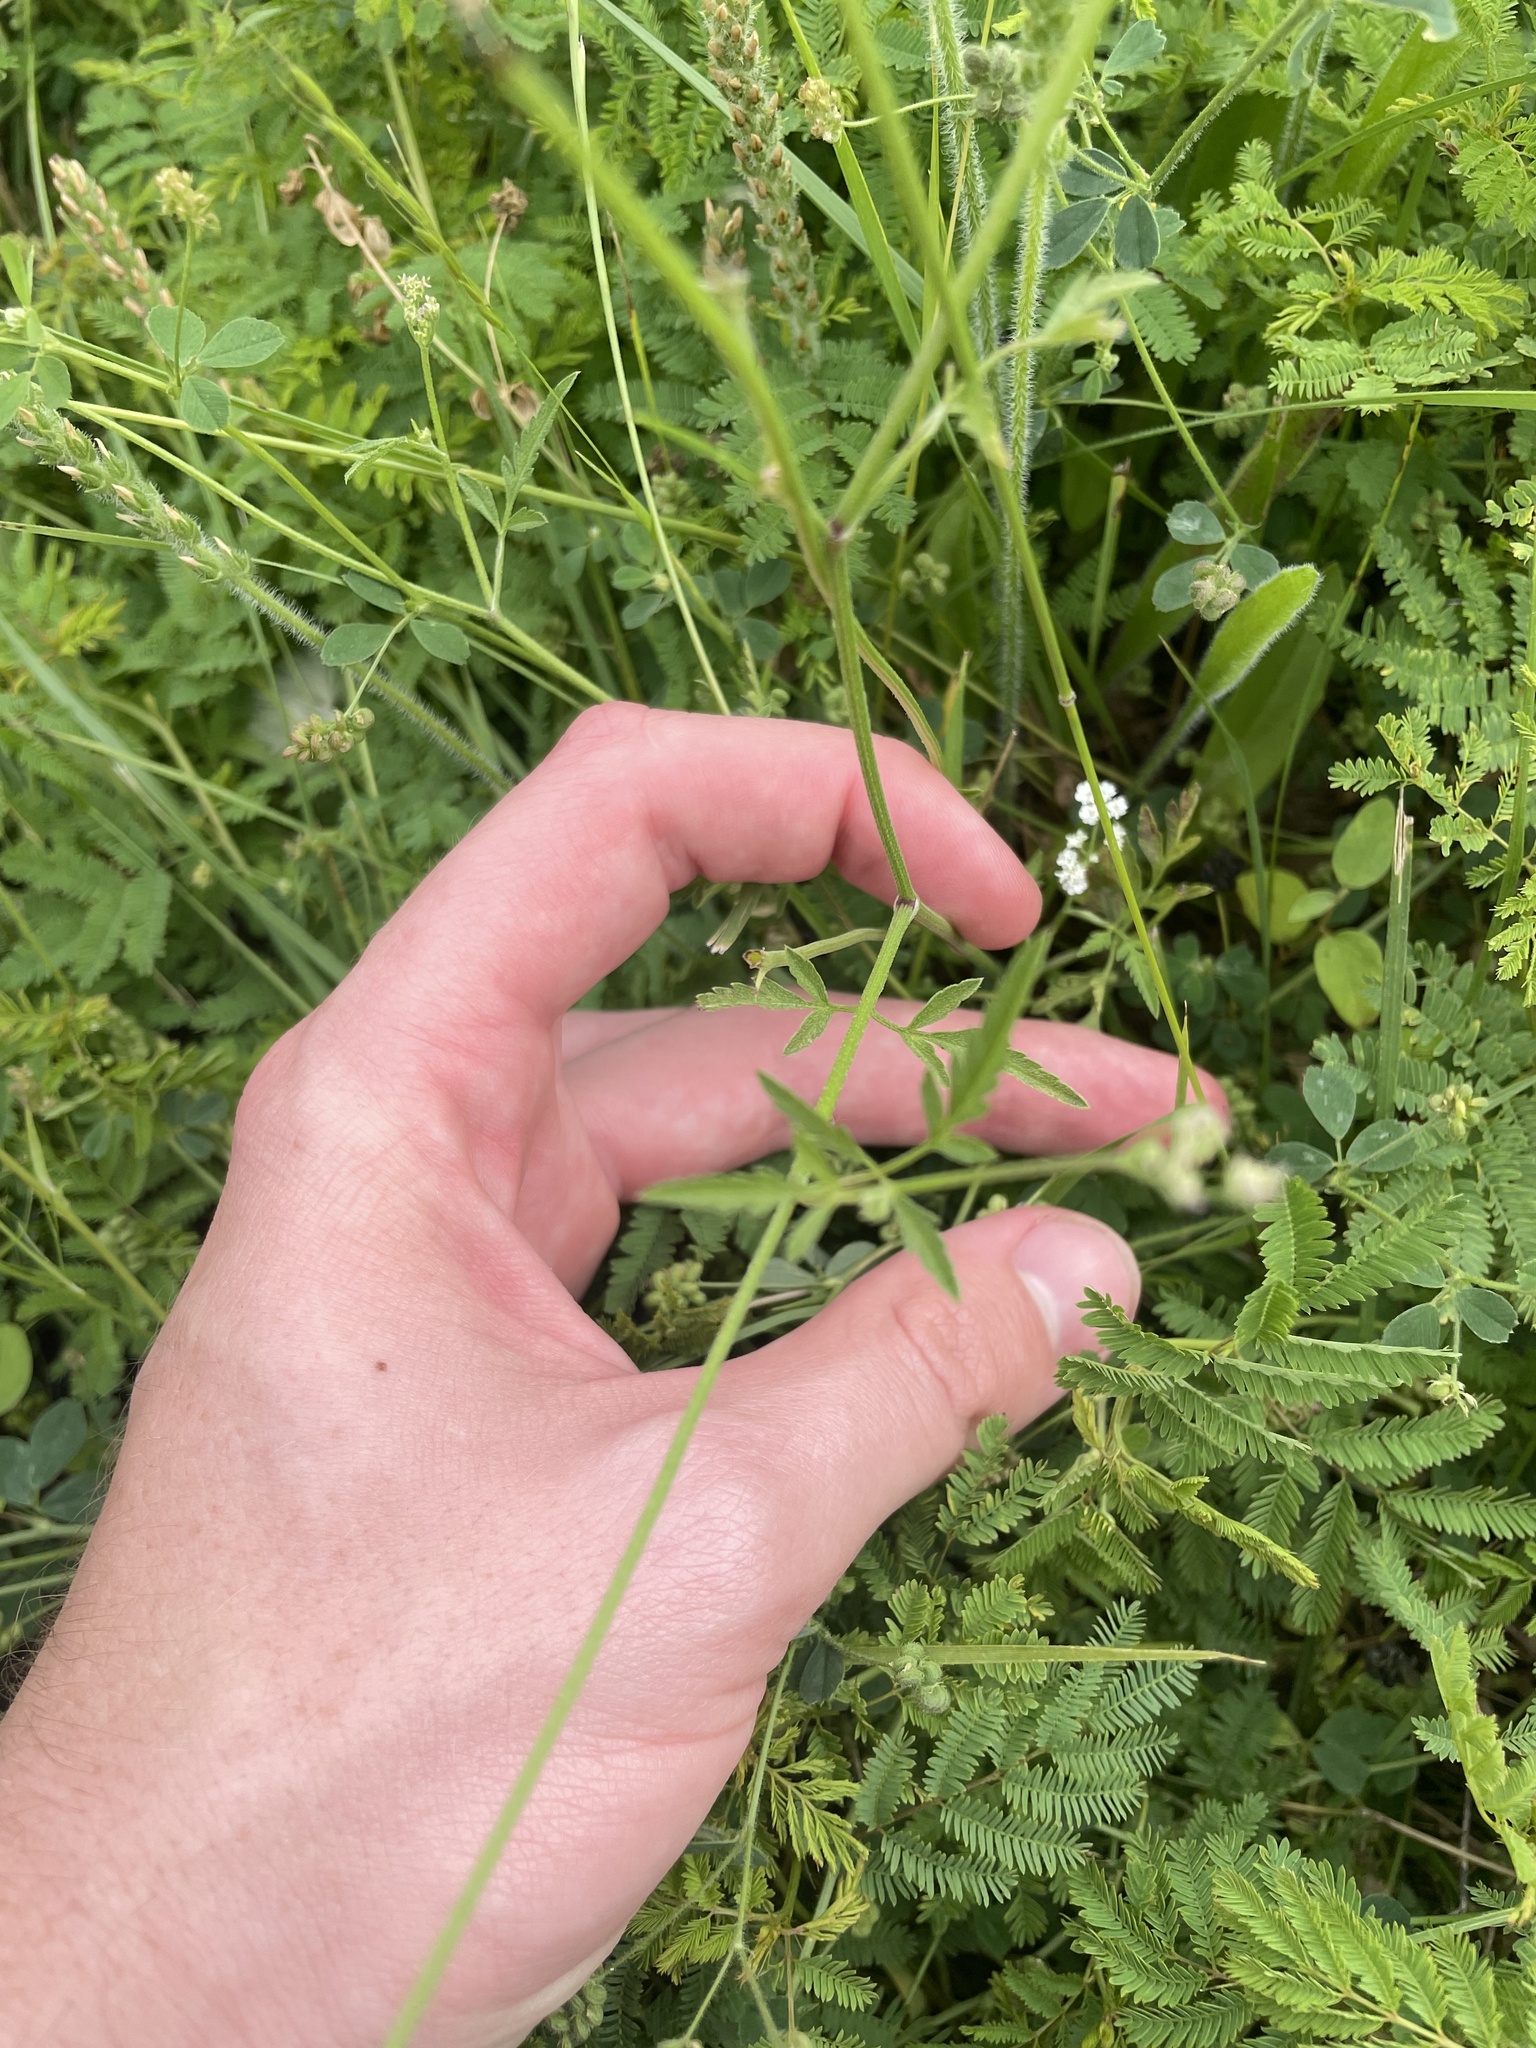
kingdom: Plantae
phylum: Tracheophyta
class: Magnoliopsida
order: Apiales
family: Apiaceae
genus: Torilis
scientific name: Torilis arvensis
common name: Spreading hedge-parsley
